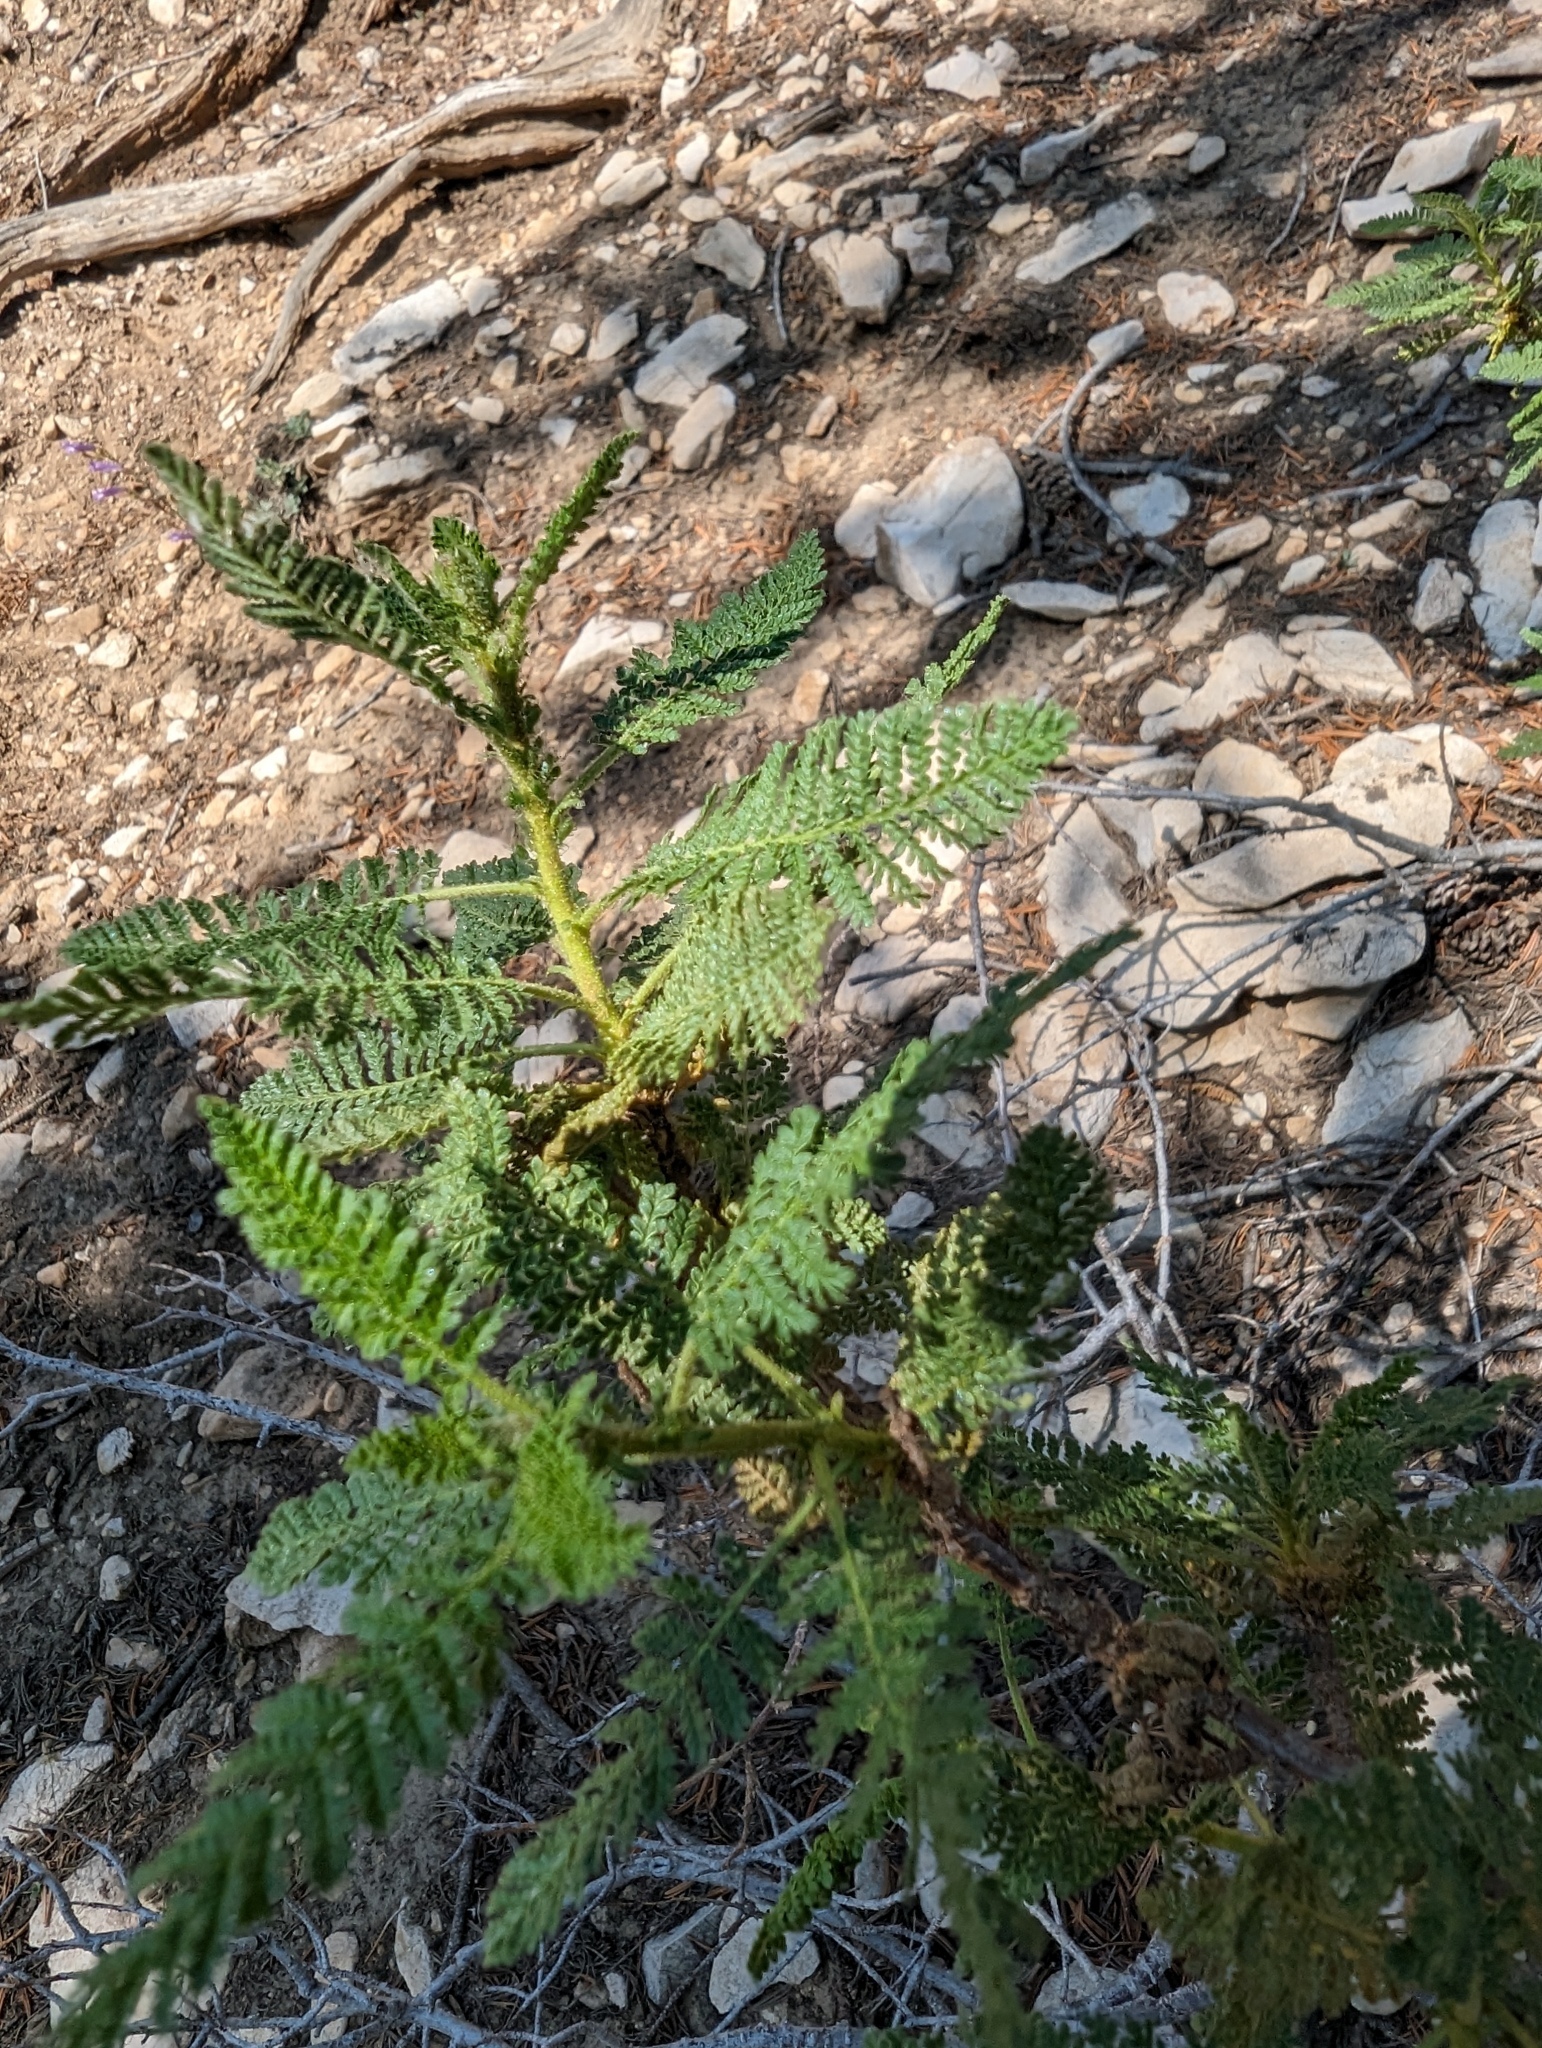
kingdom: Plantae
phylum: Tracheophyta
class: Magnoliopsida
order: Rosales
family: Rosaceae
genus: Chamaebatiaria
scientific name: Chamaebatiaria millefolium
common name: Fernbush
